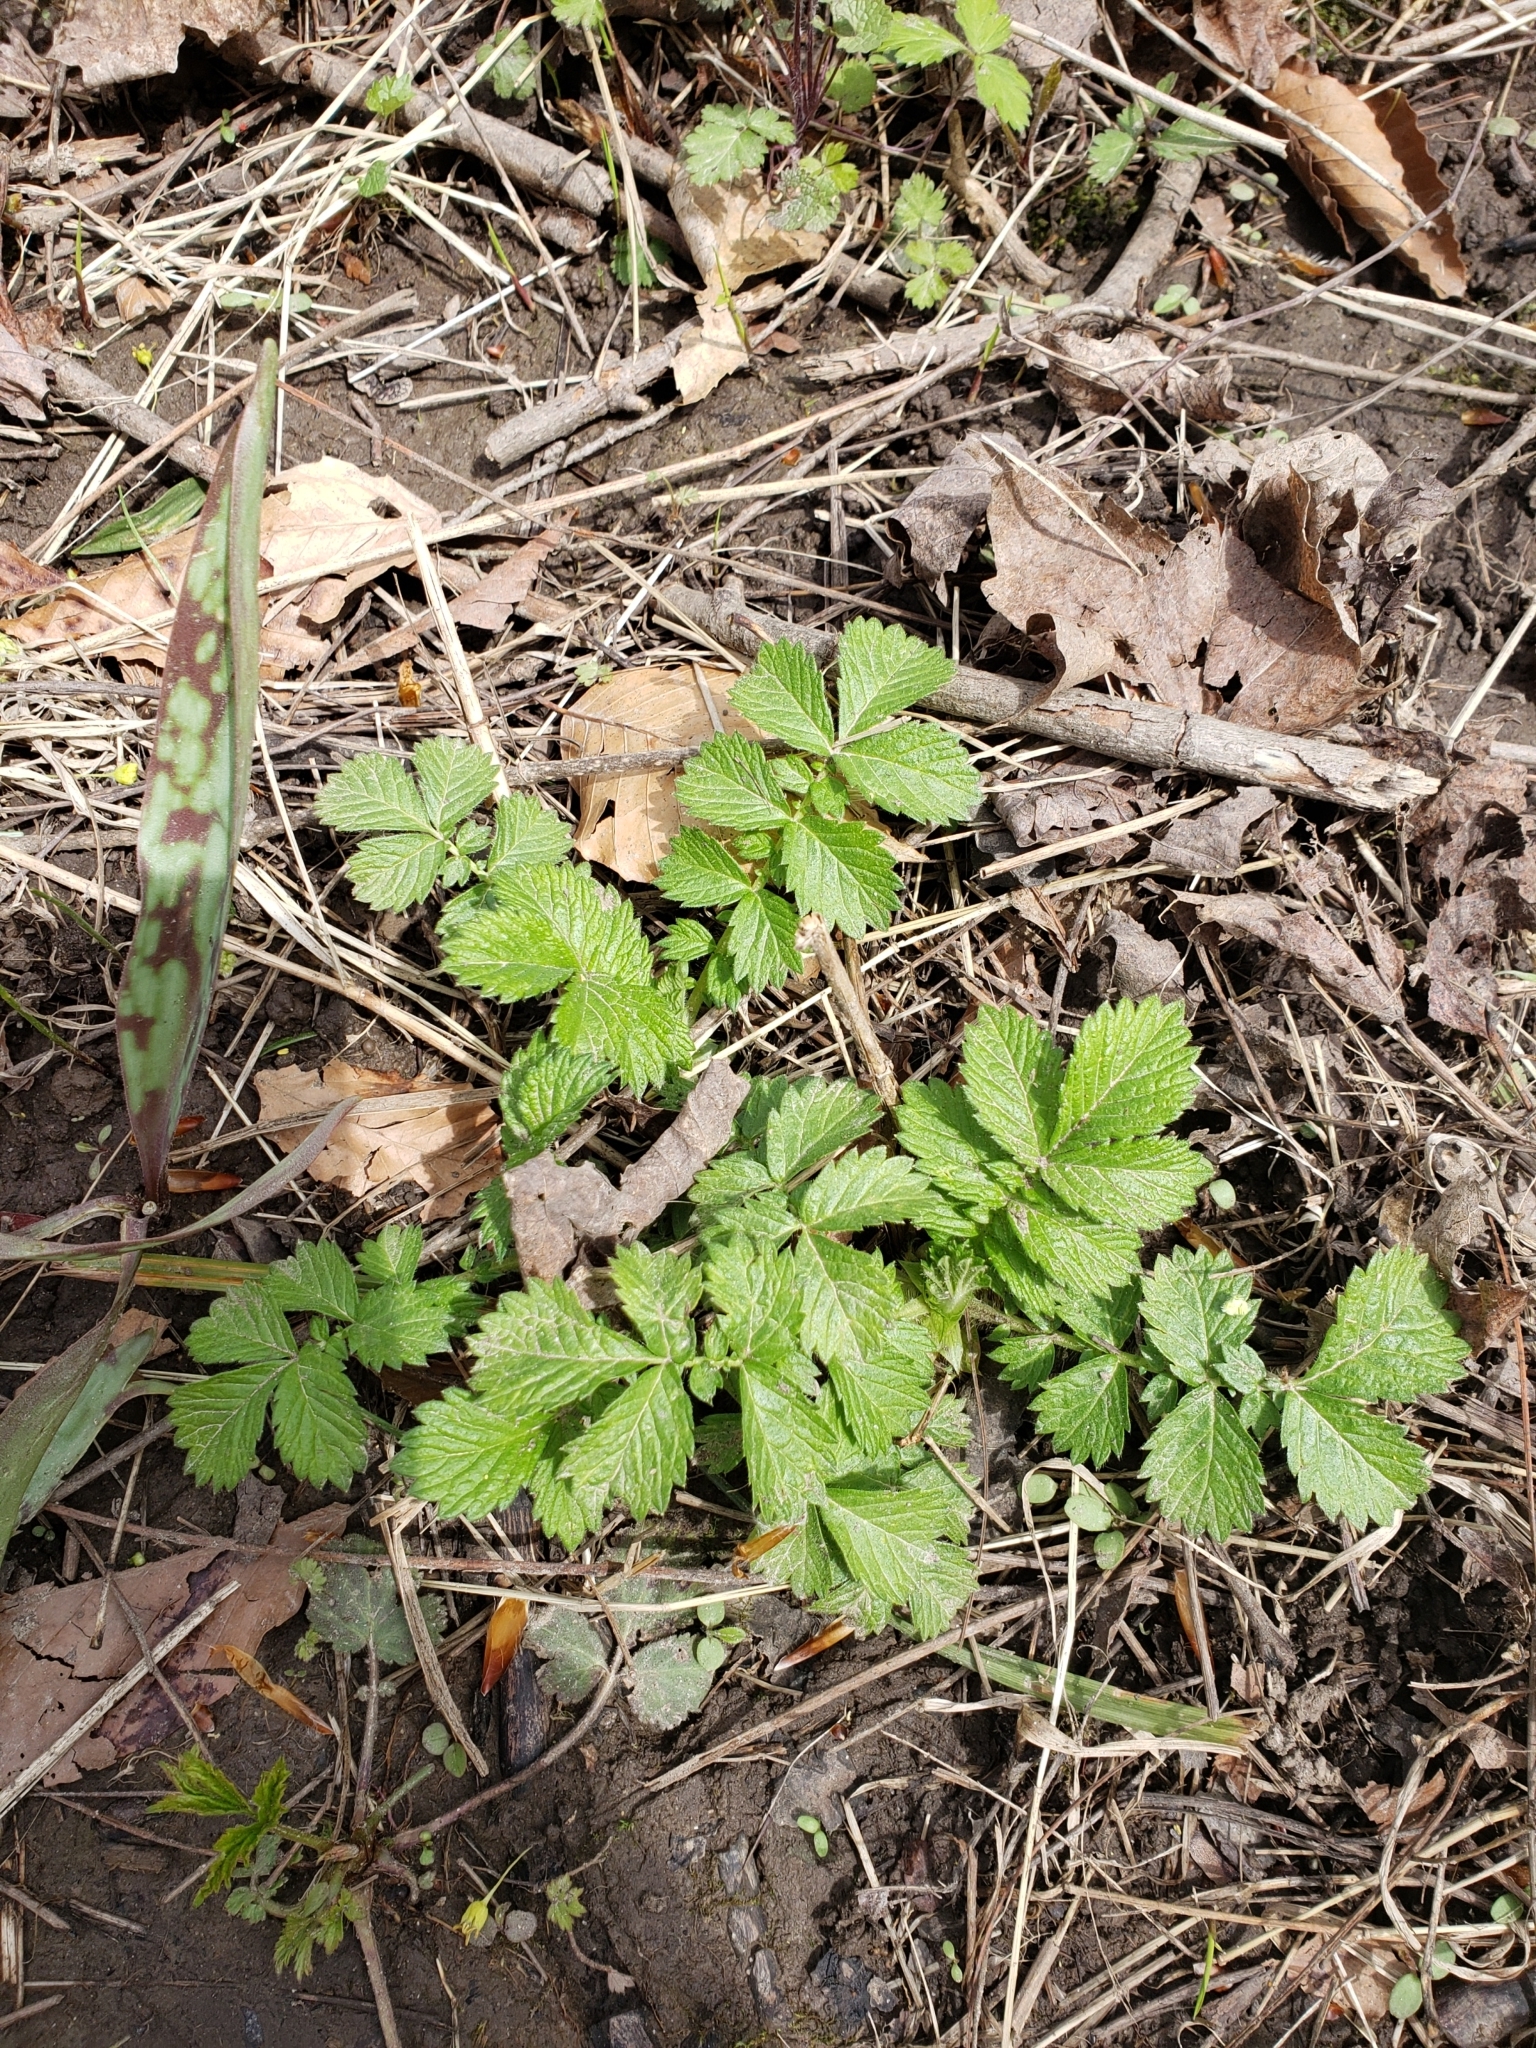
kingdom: Plantae
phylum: Tracheophyta
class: Magnoliopsida
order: Rosales
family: Rosaceae
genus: Agrimonia
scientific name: Agrimonia gryposepala
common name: Common agrimony
